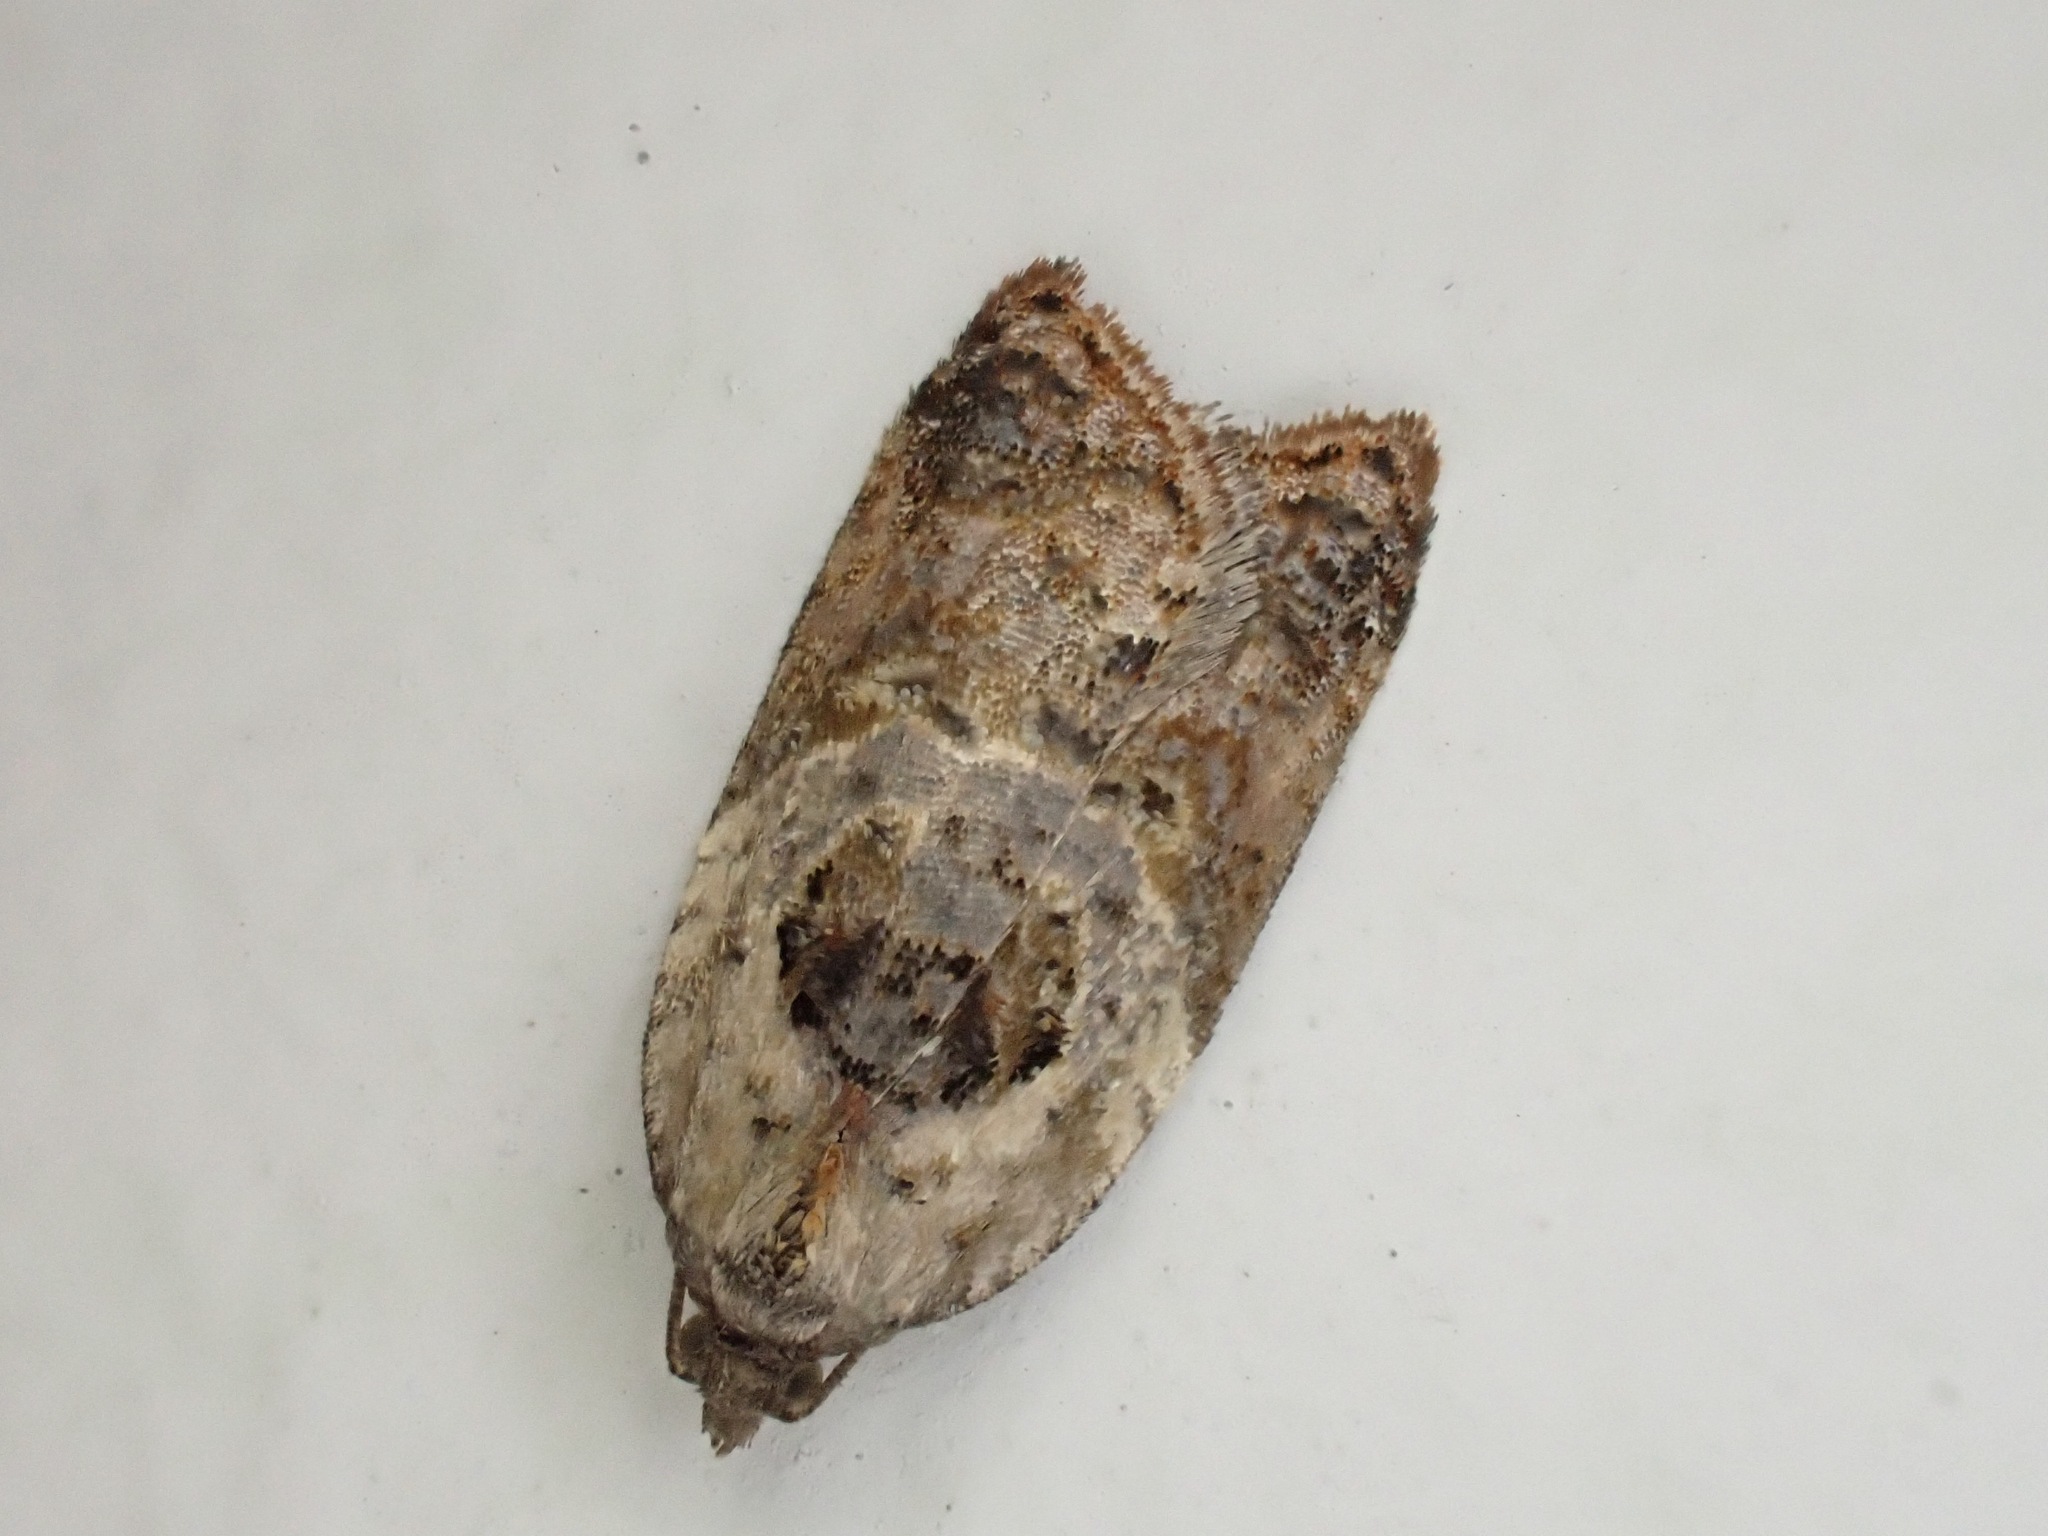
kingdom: Animalia
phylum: Arthropoda
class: Insecta
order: Lepidoptera
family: Tortricidae
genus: Acleris
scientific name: Acleris variegana
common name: Garden rose tortrix
